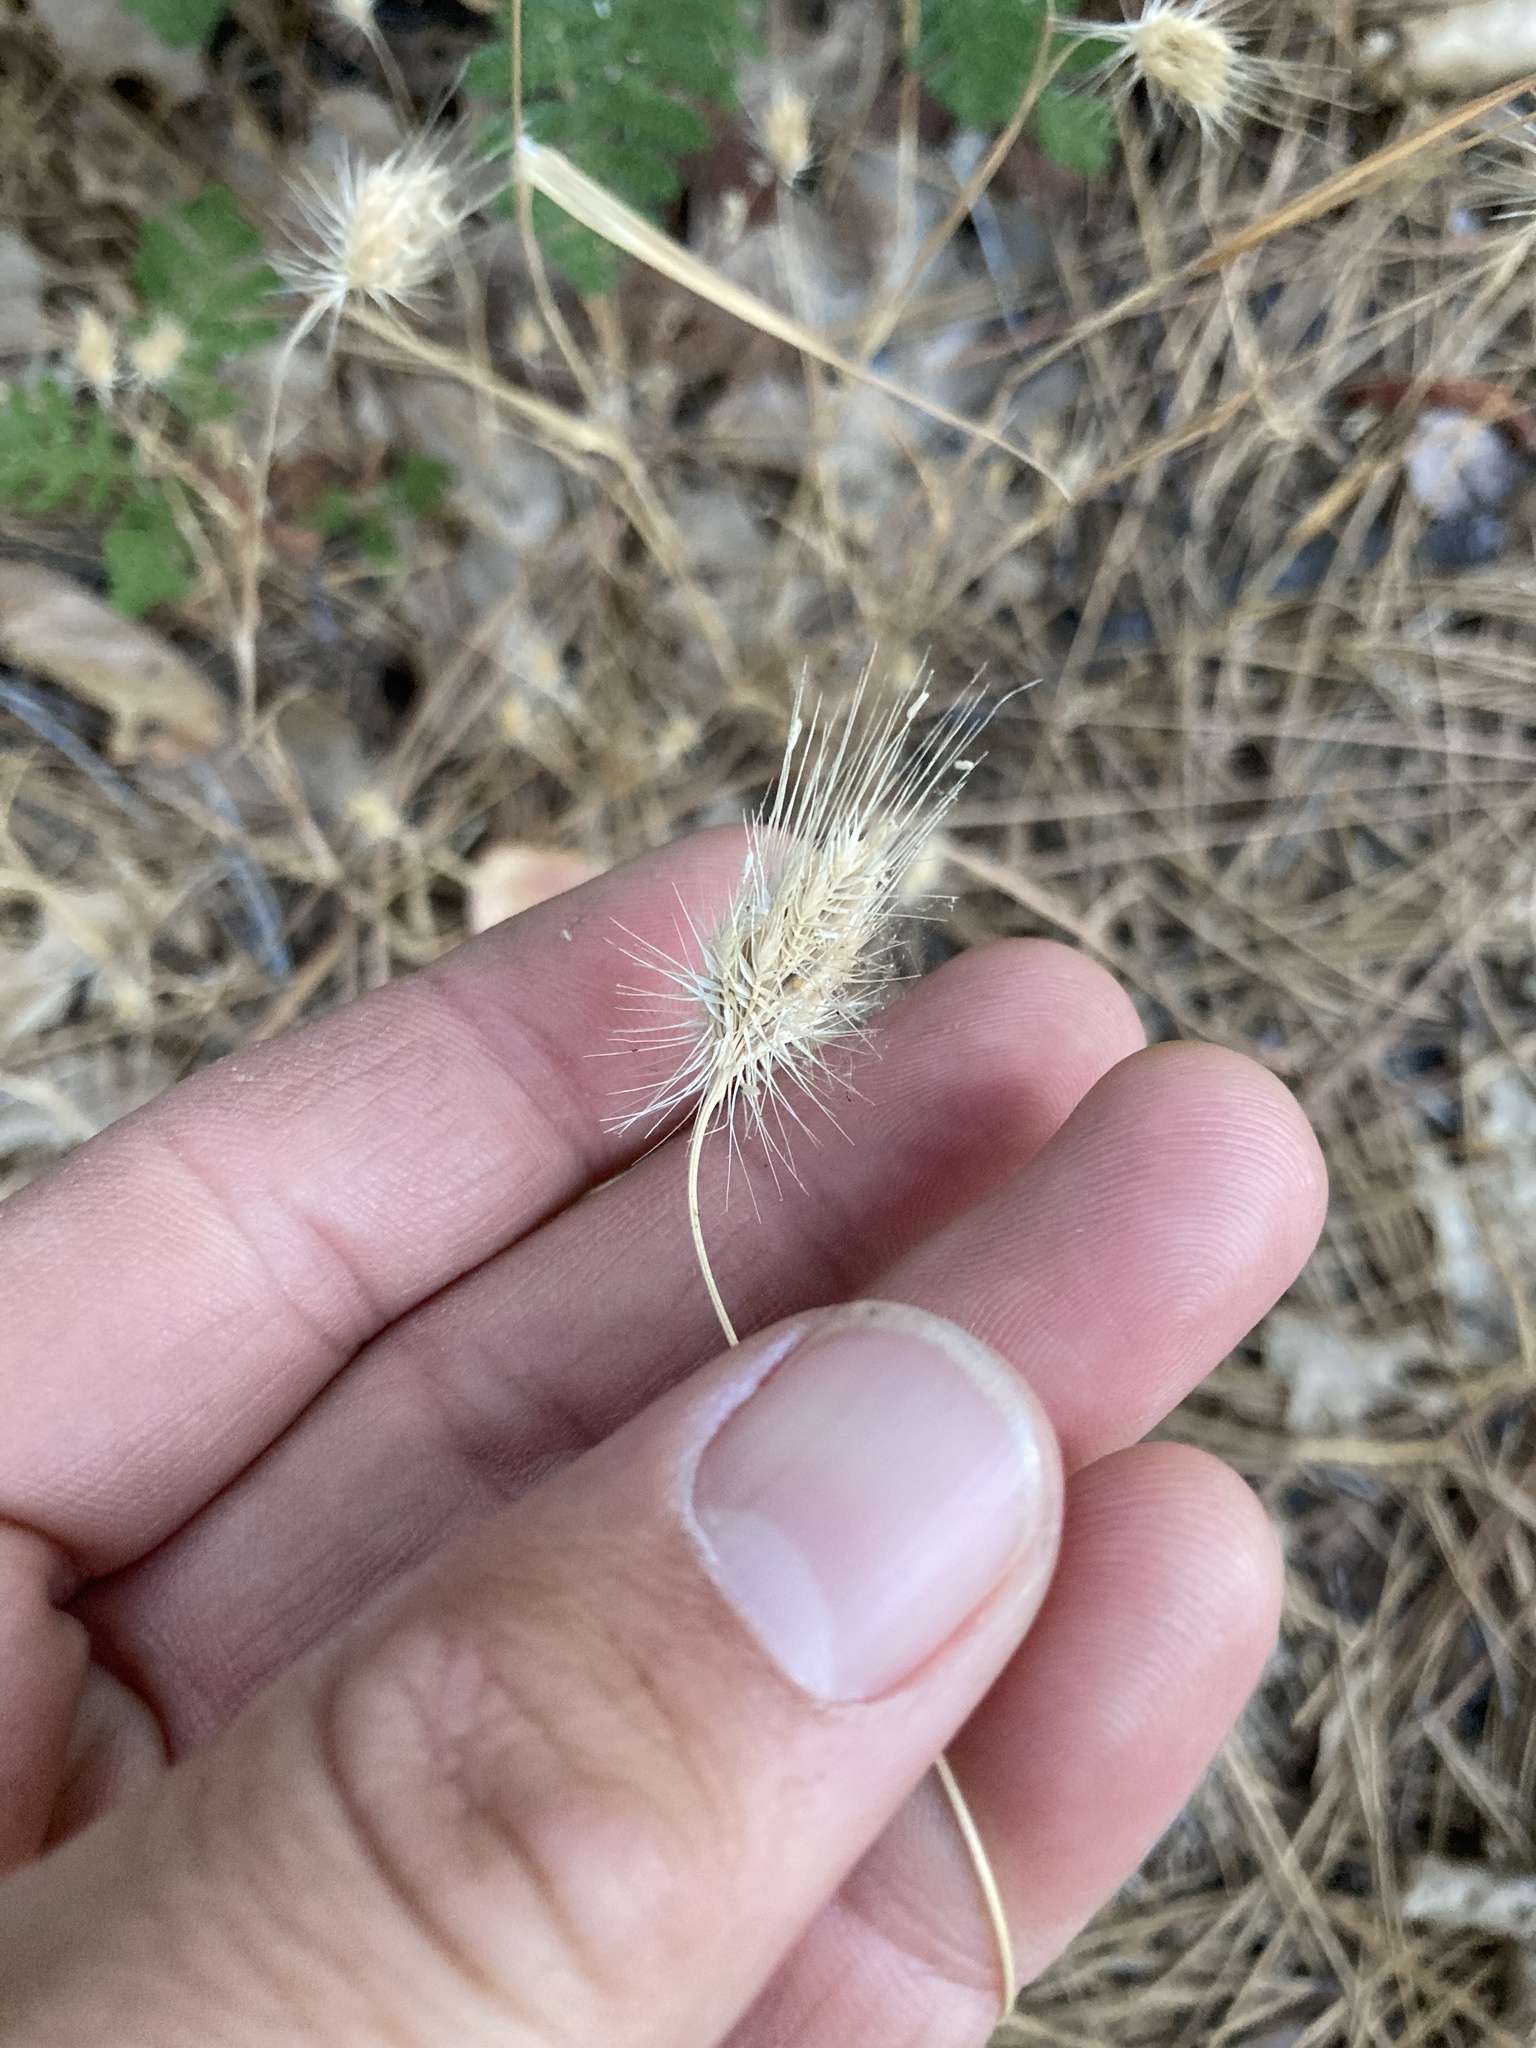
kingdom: Plantae
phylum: Tracheophyta
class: Liliopsida
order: Poales
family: Poaceae
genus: Cynosurus
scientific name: Cynosurus echinatus
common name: Rough dog's-tail
